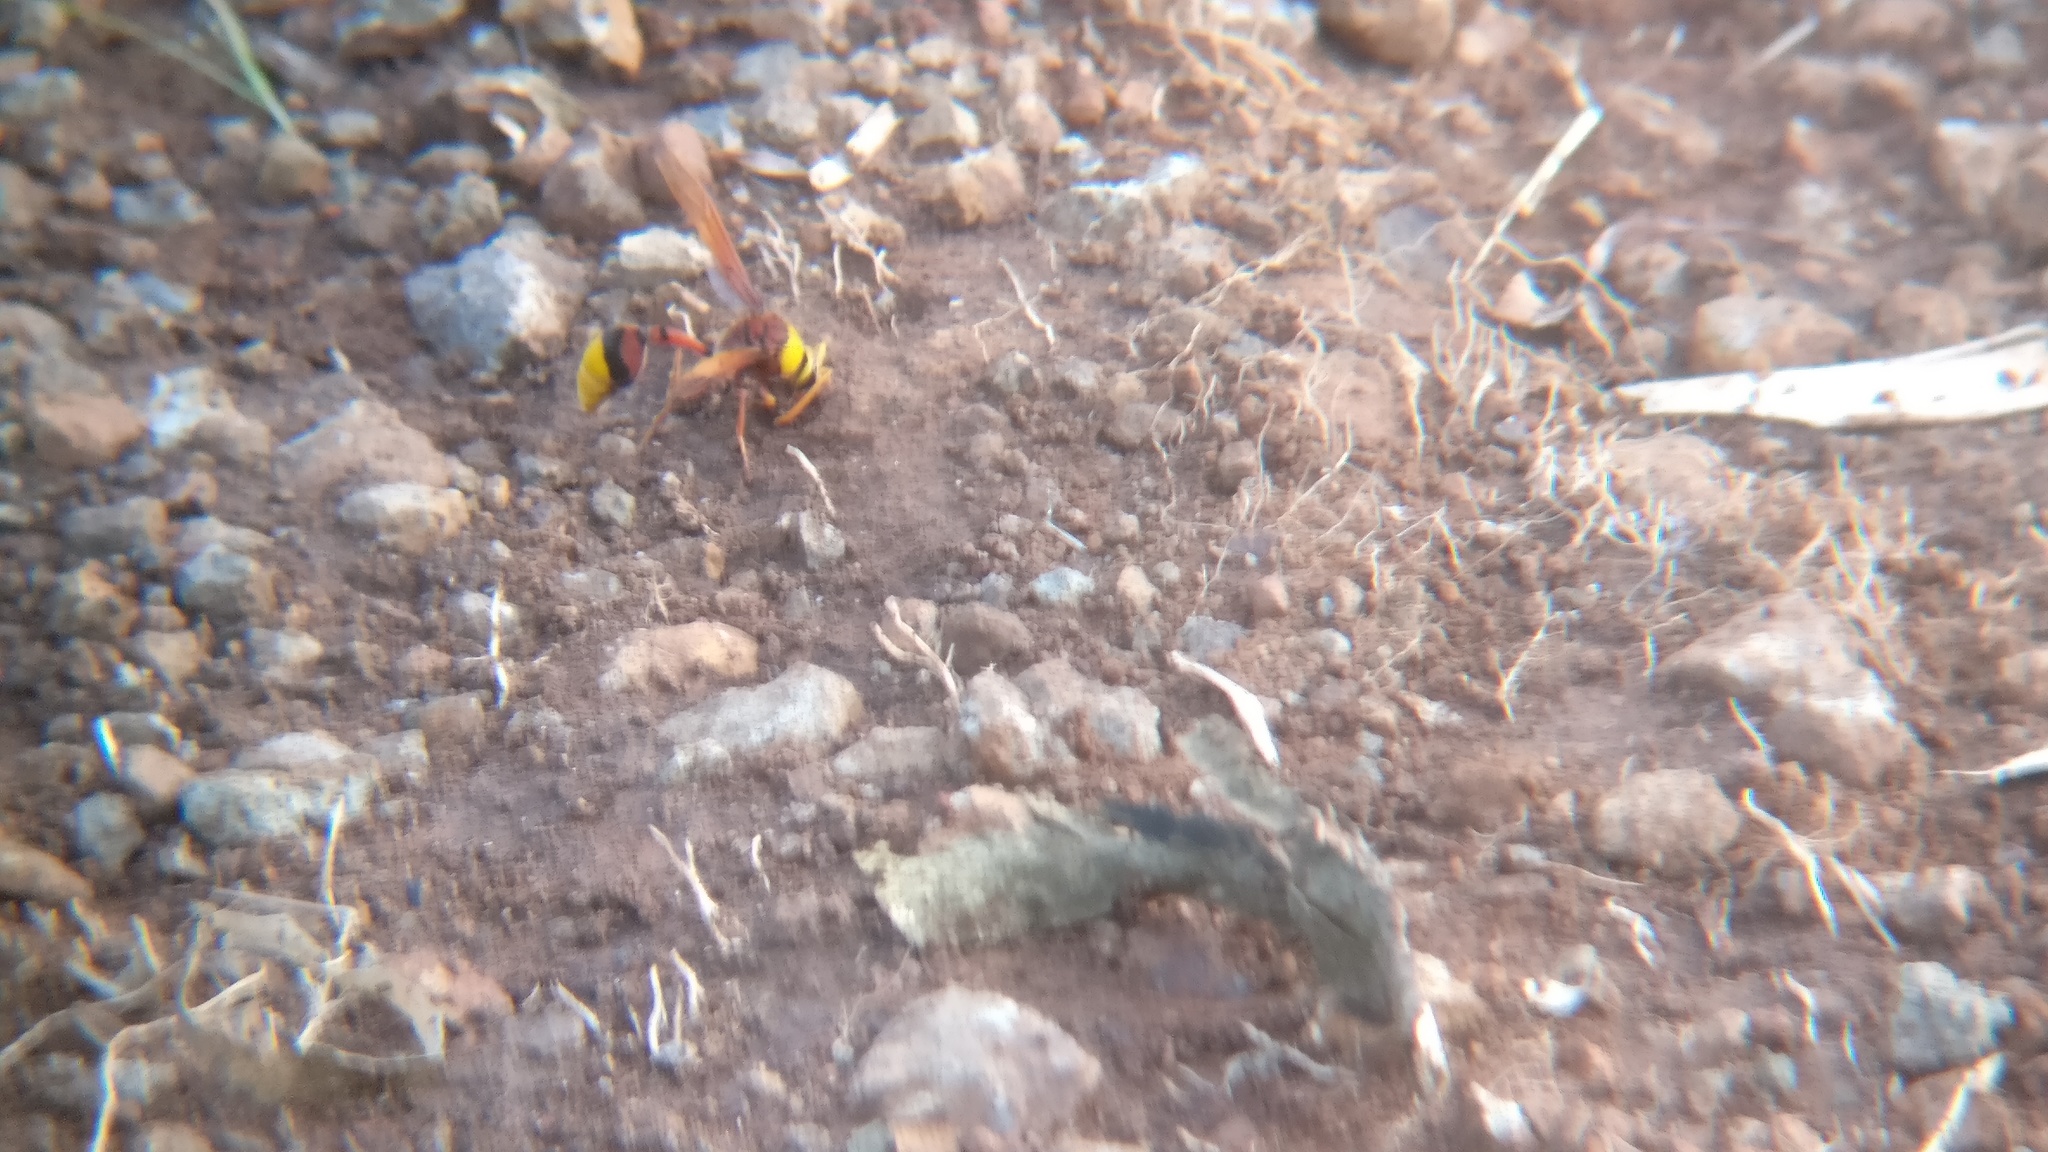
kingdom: Animalia
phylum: Arthropoda
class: Insecta
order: Hymenoptera
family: Eumenidae
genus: Delta
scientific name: Delta pyriforme
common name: Wasp
